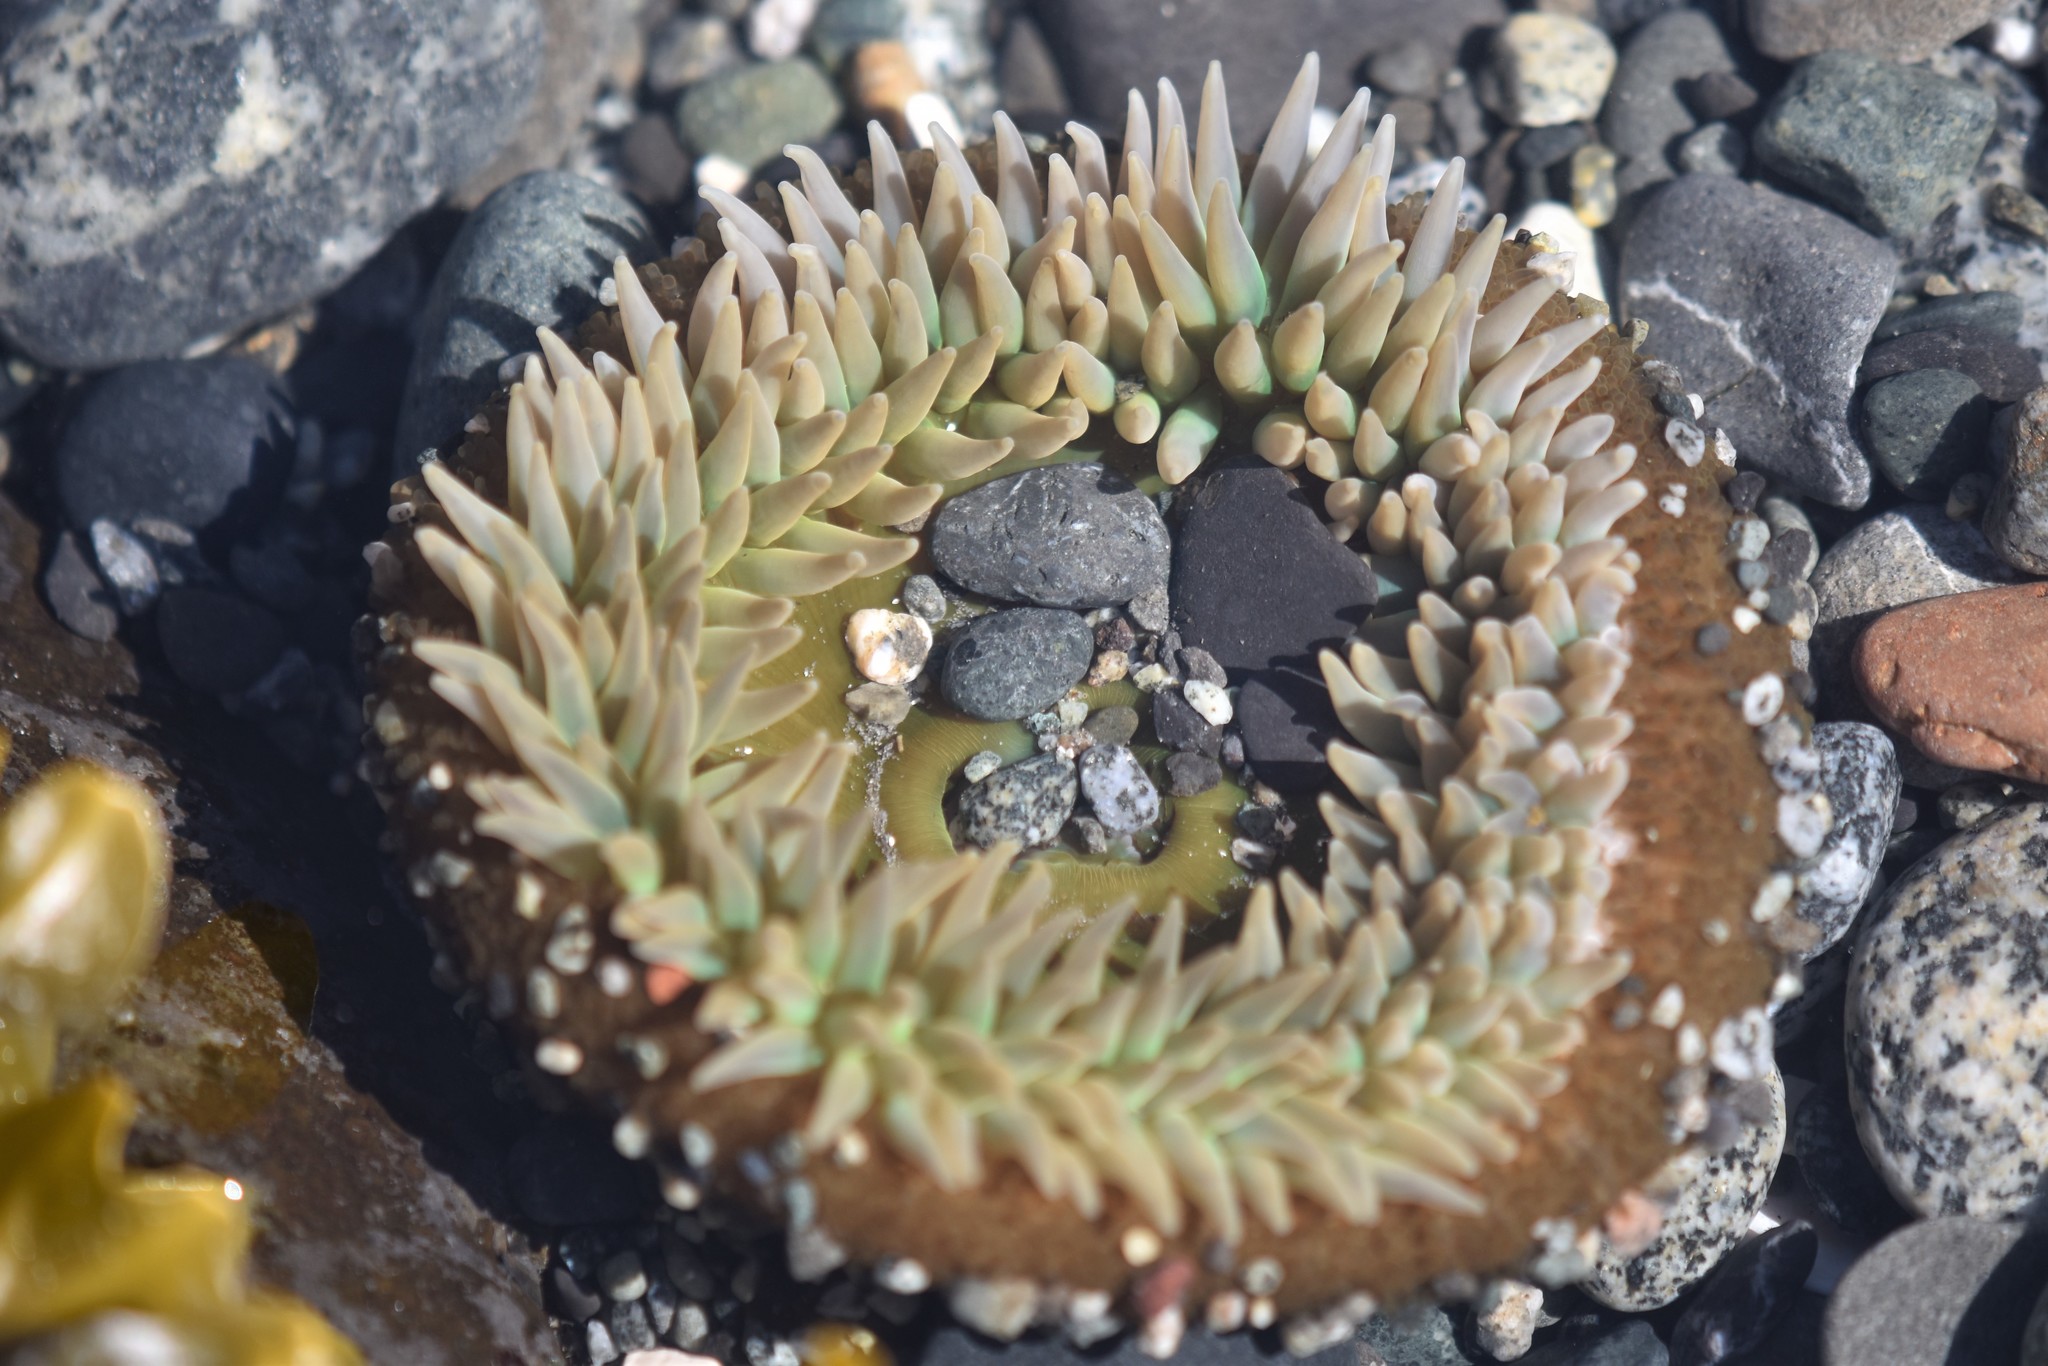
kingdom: Animalia
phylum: Cnidaria
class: Anthozoa
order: Actiniaria
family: Actiniidae
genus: Anthopleura
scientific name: Anthopleura xanthogrammica
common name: Giant green anemone
